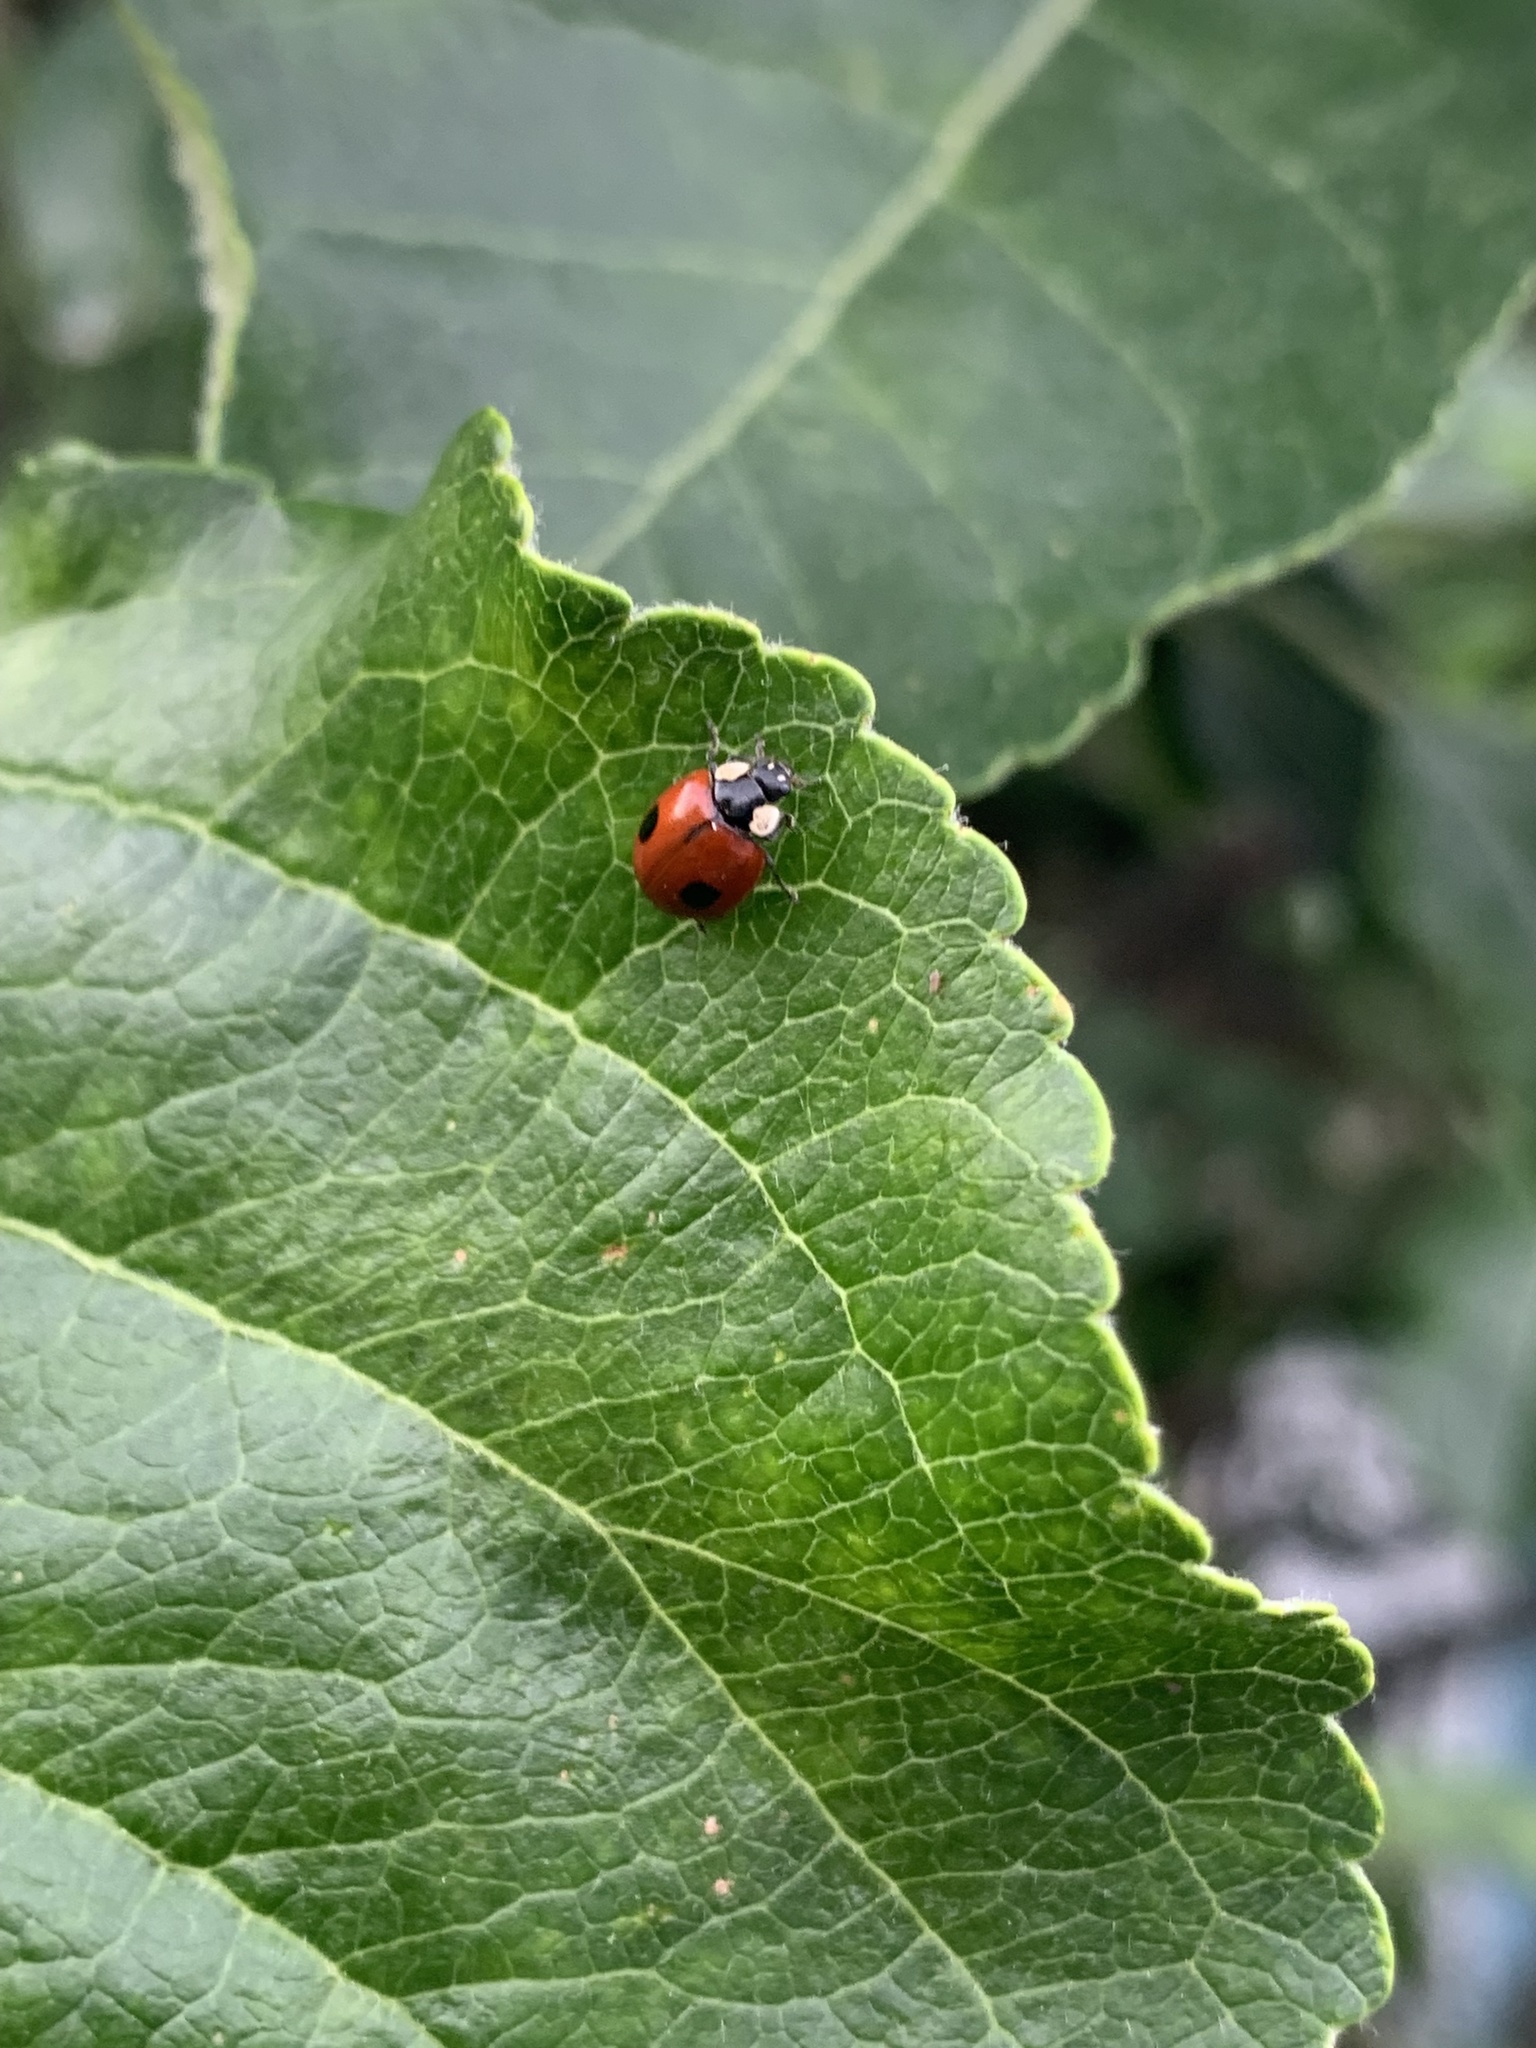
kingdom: Animalia
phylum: Arthropoda
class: Insecta
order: Coleoptera
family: Coccinellidae
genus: Adalia
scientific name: Adalia bipunctata
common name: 2-spot ladybird
